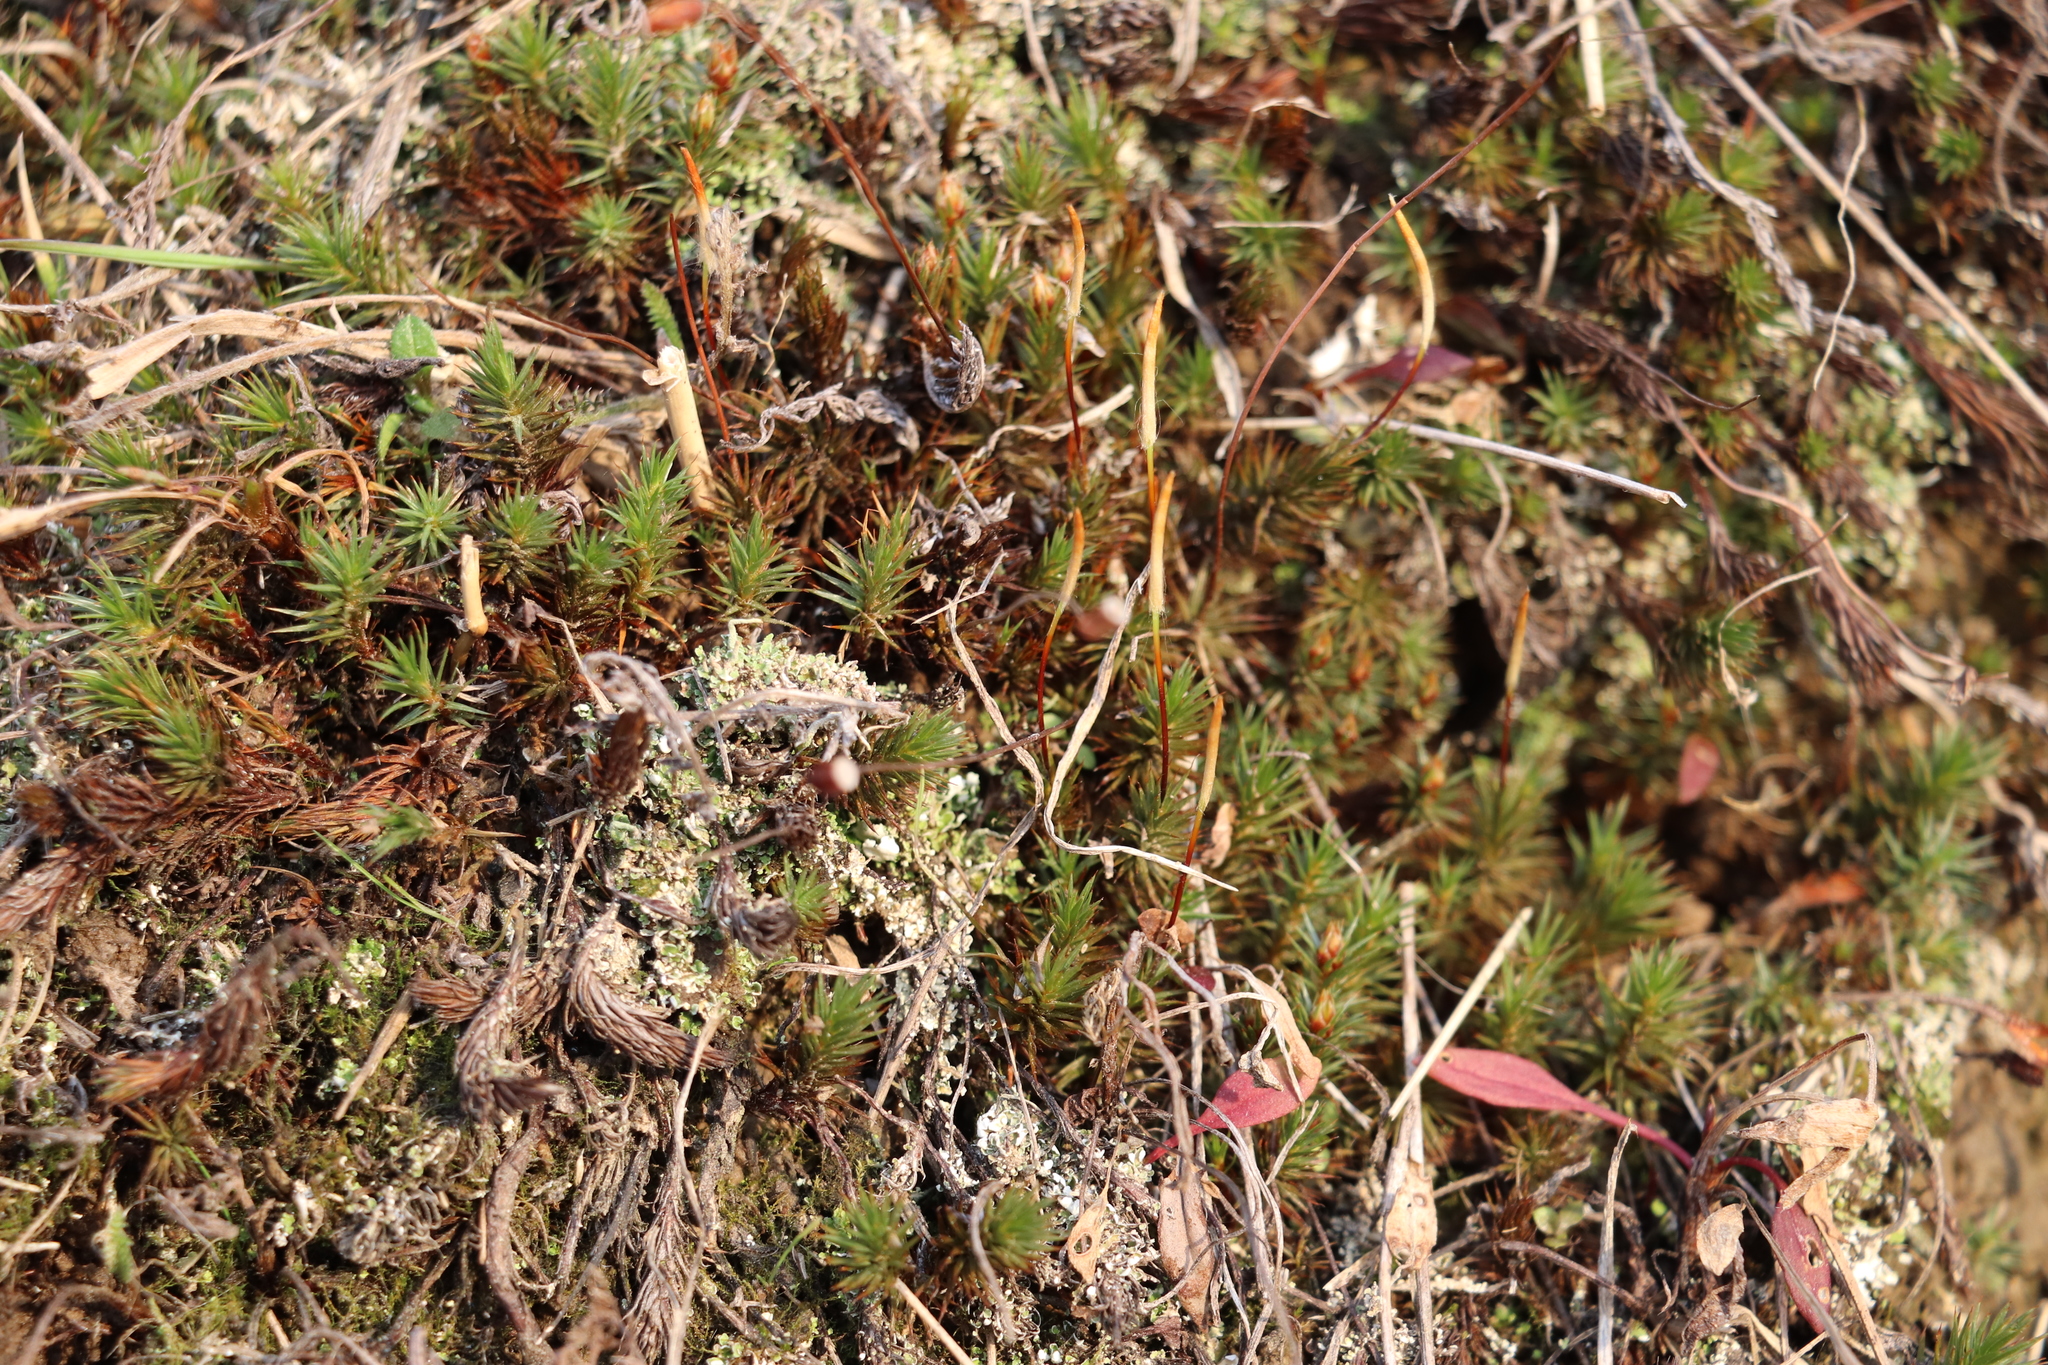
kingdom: Plantae
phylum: Bryophyta
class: Polytrichopsida
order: Polytrichales
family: Polytrichaceae
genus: Polytrichum
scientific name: Polytrichum juniperinum
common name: Juniper haircap moss
